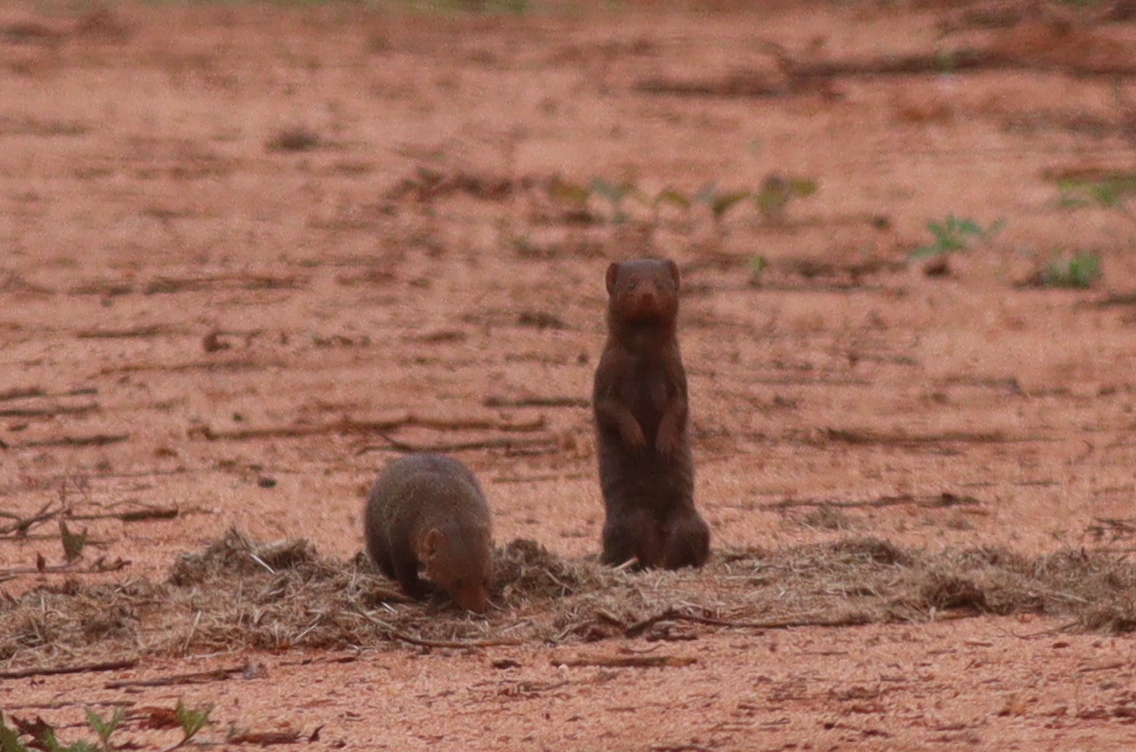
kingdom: Animalia
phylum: Chordata
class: Mammalia
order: Carnivora
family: Herpestidae
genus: Helogale
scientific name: Helogale parvula
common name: Common dwarf mongoose
